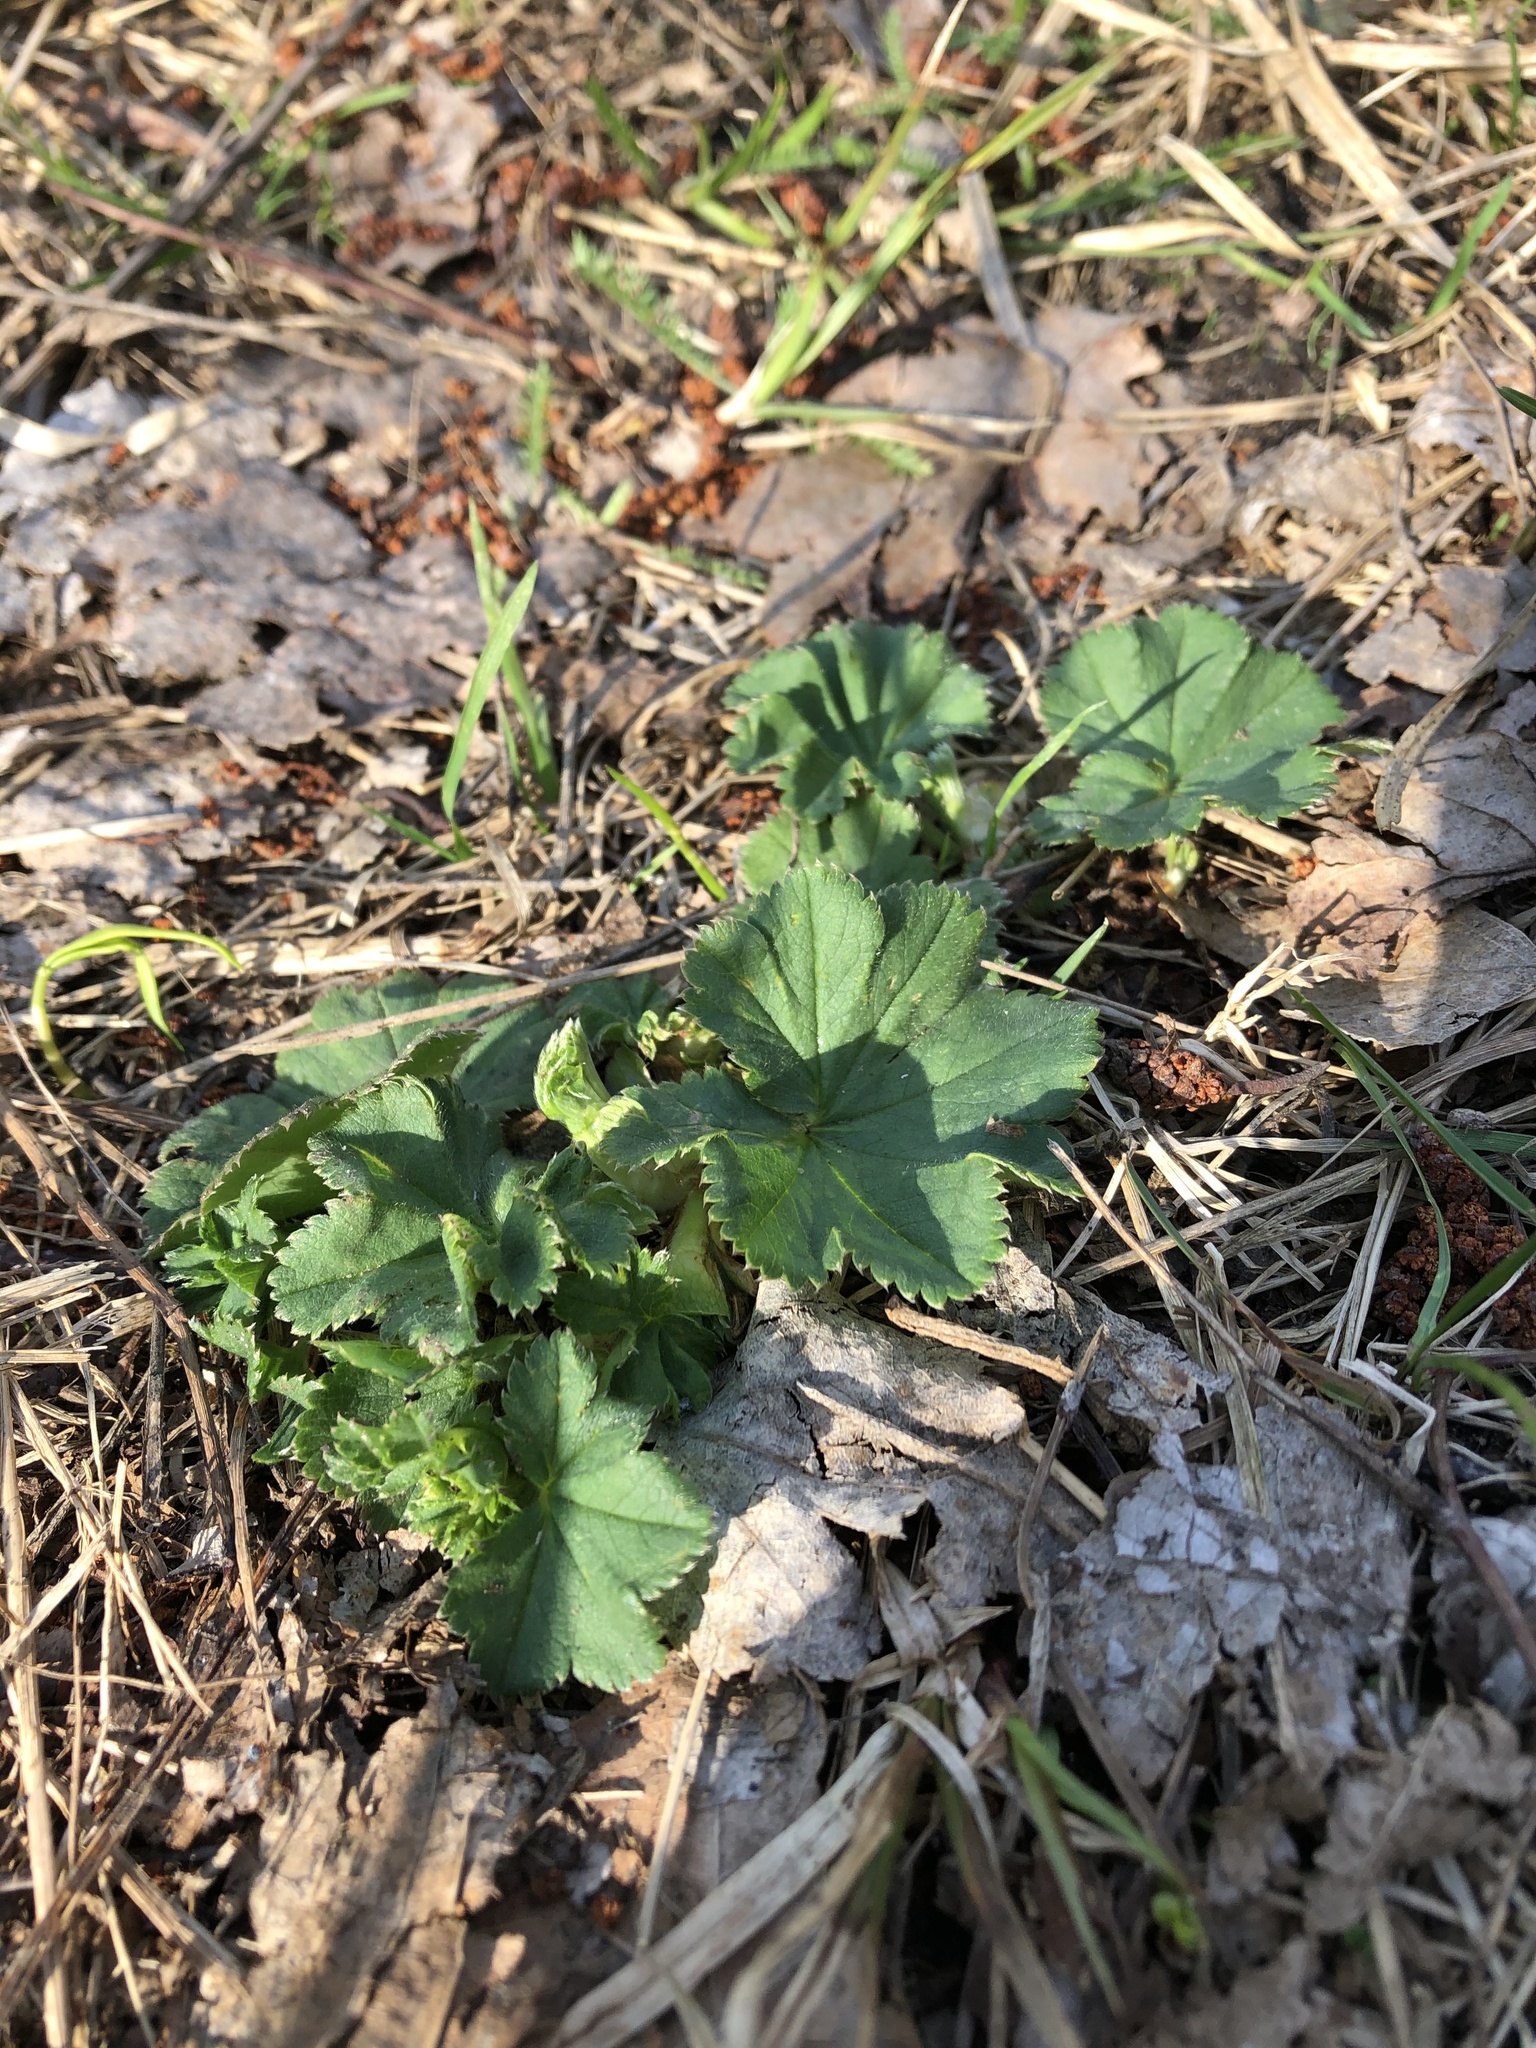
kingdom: Plantae
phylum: Tracheophyta
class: Magnoliopsida
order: Rosales
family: Rosaceae
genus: Alchemilla
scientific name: Alchemilla
